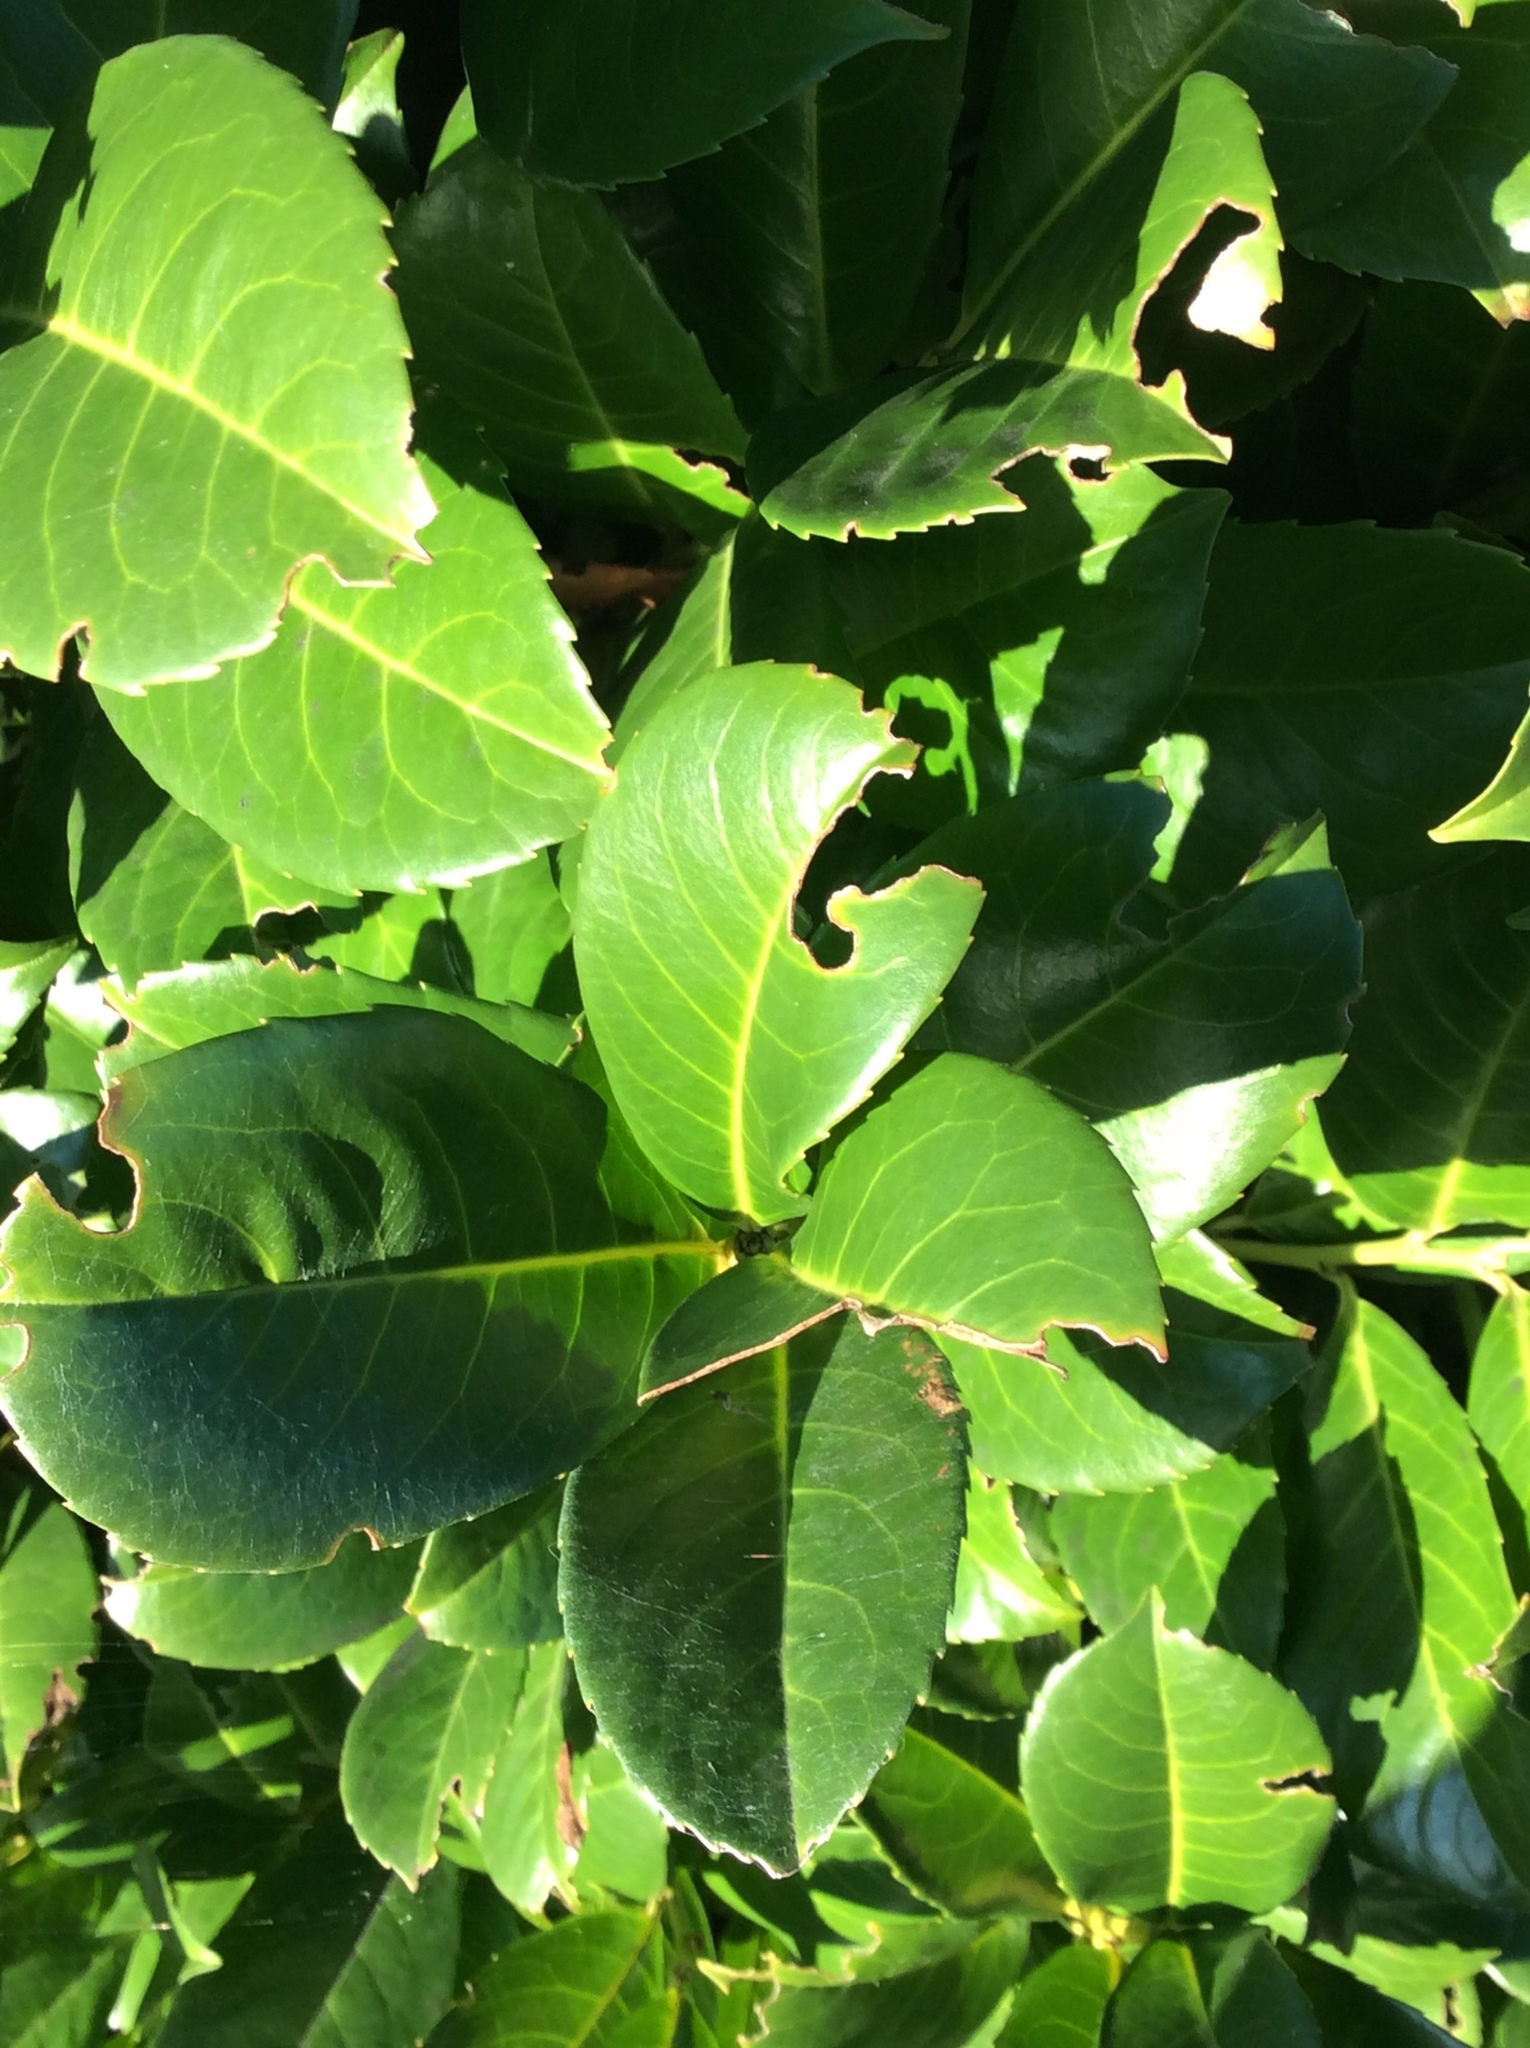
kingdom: Plantae
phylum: Tracheophyta
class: Magnoliopsida
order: Rosales
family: Rosaceae
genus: Prunus
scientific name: Prunus laurocerasus
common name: Cherry laurel
